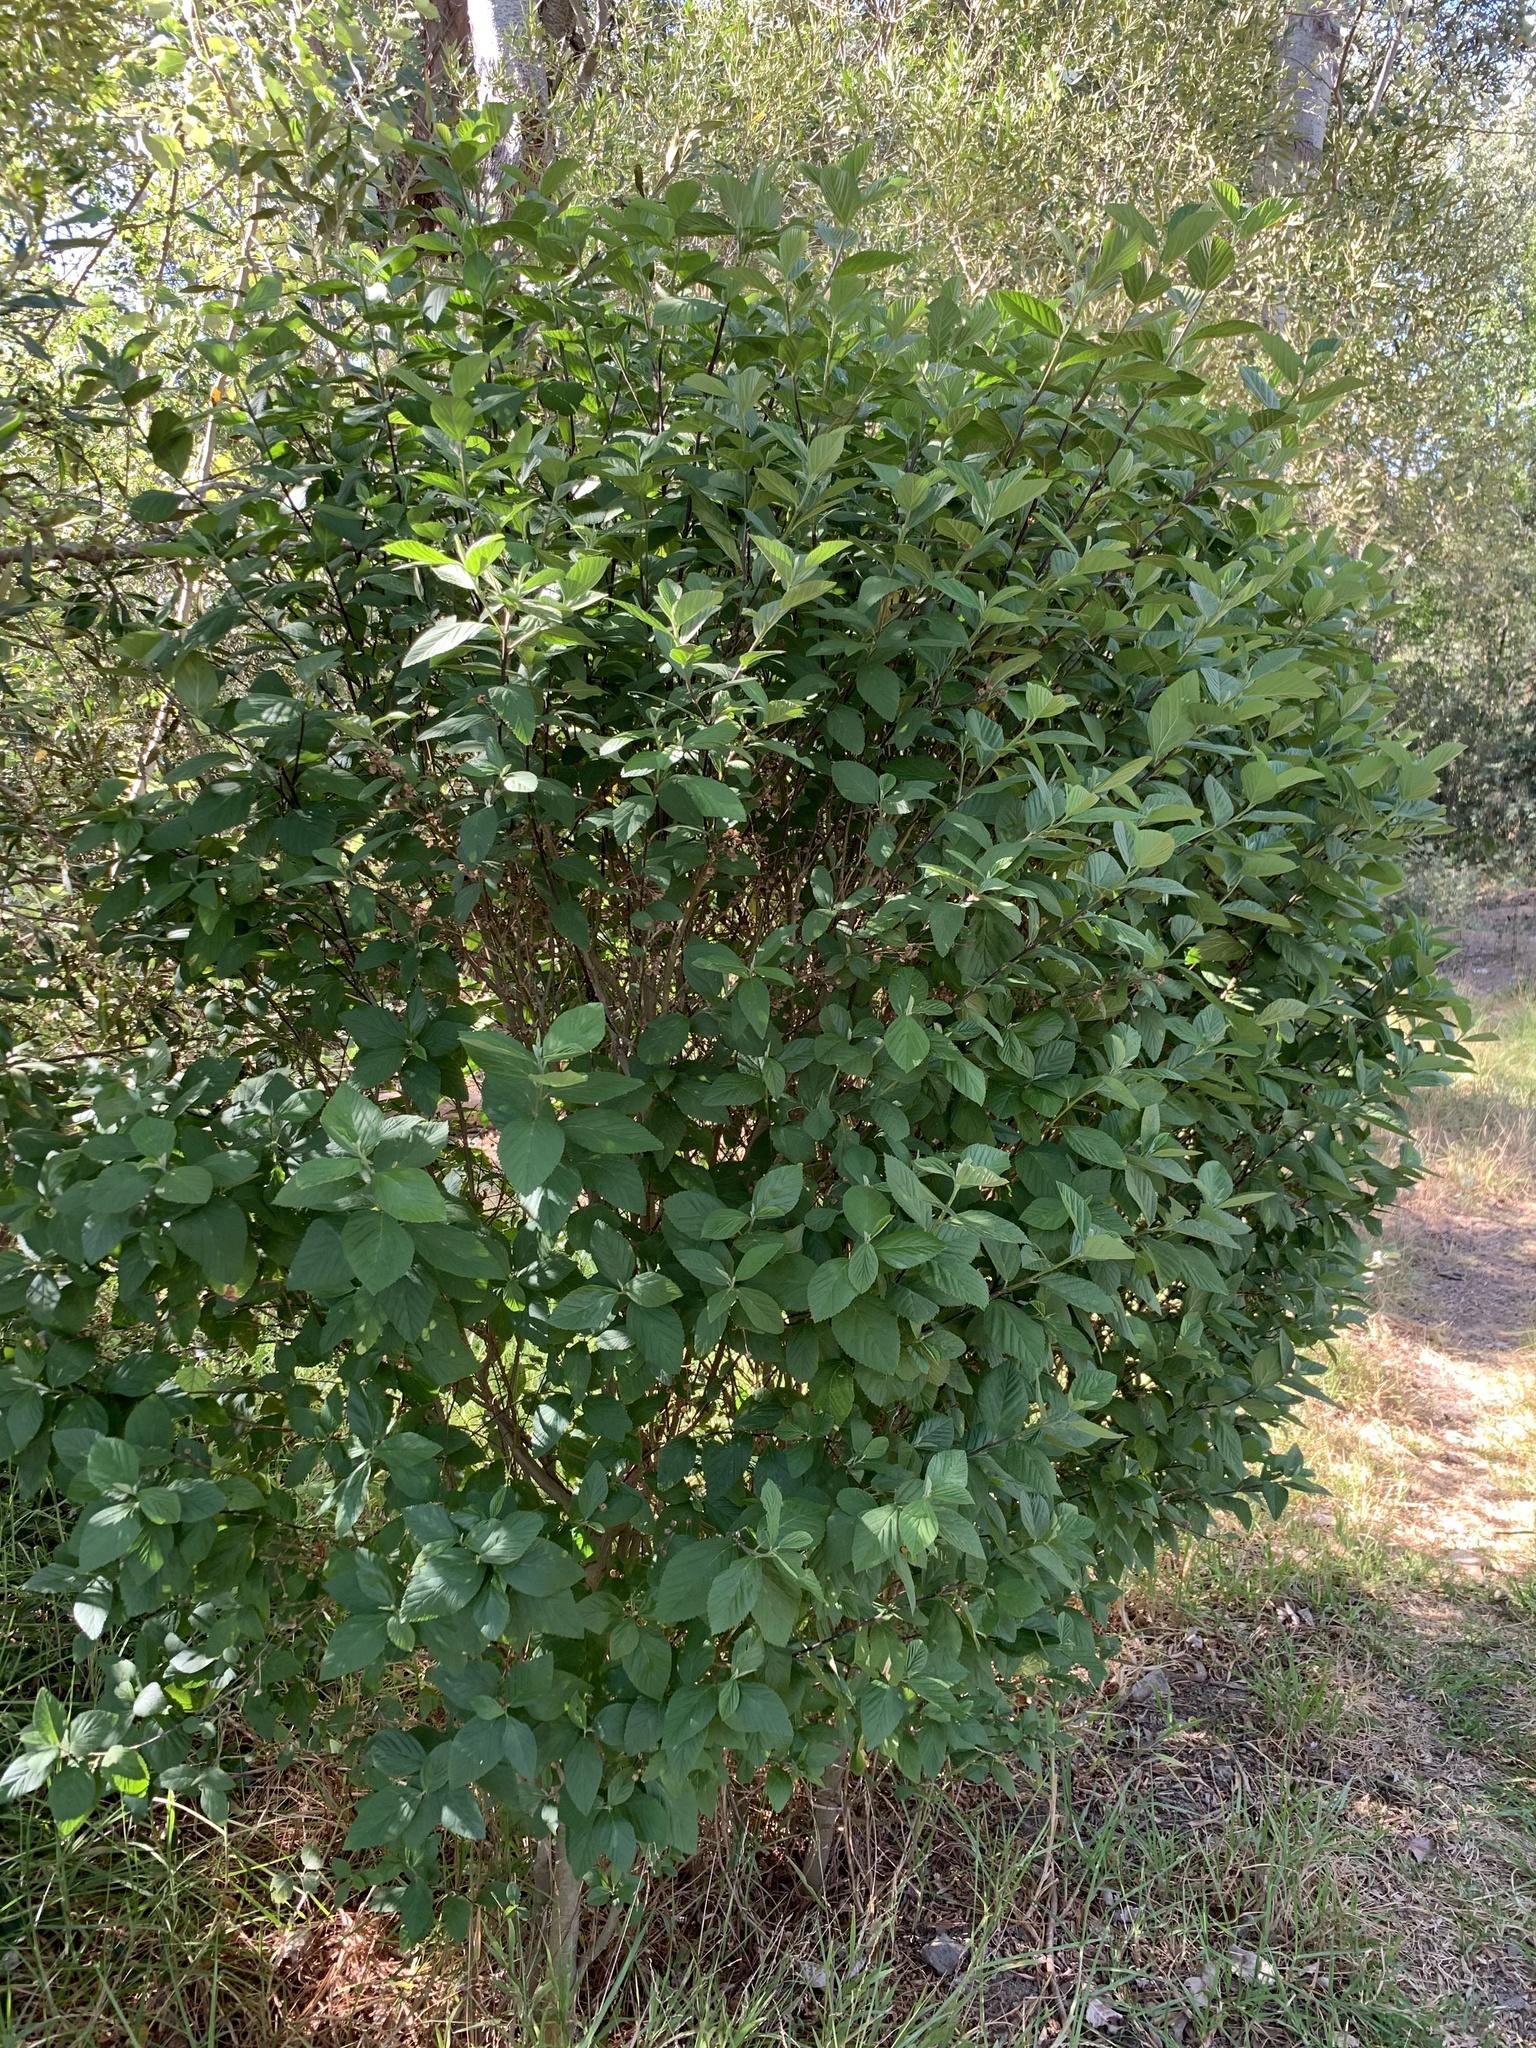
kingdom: Plantae
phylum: Tracheophyta
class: Magnoliopsida
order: Malvales
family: Malvaceae
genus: Sida
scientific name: Sida rhombifolia
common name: Queensland-hemp
